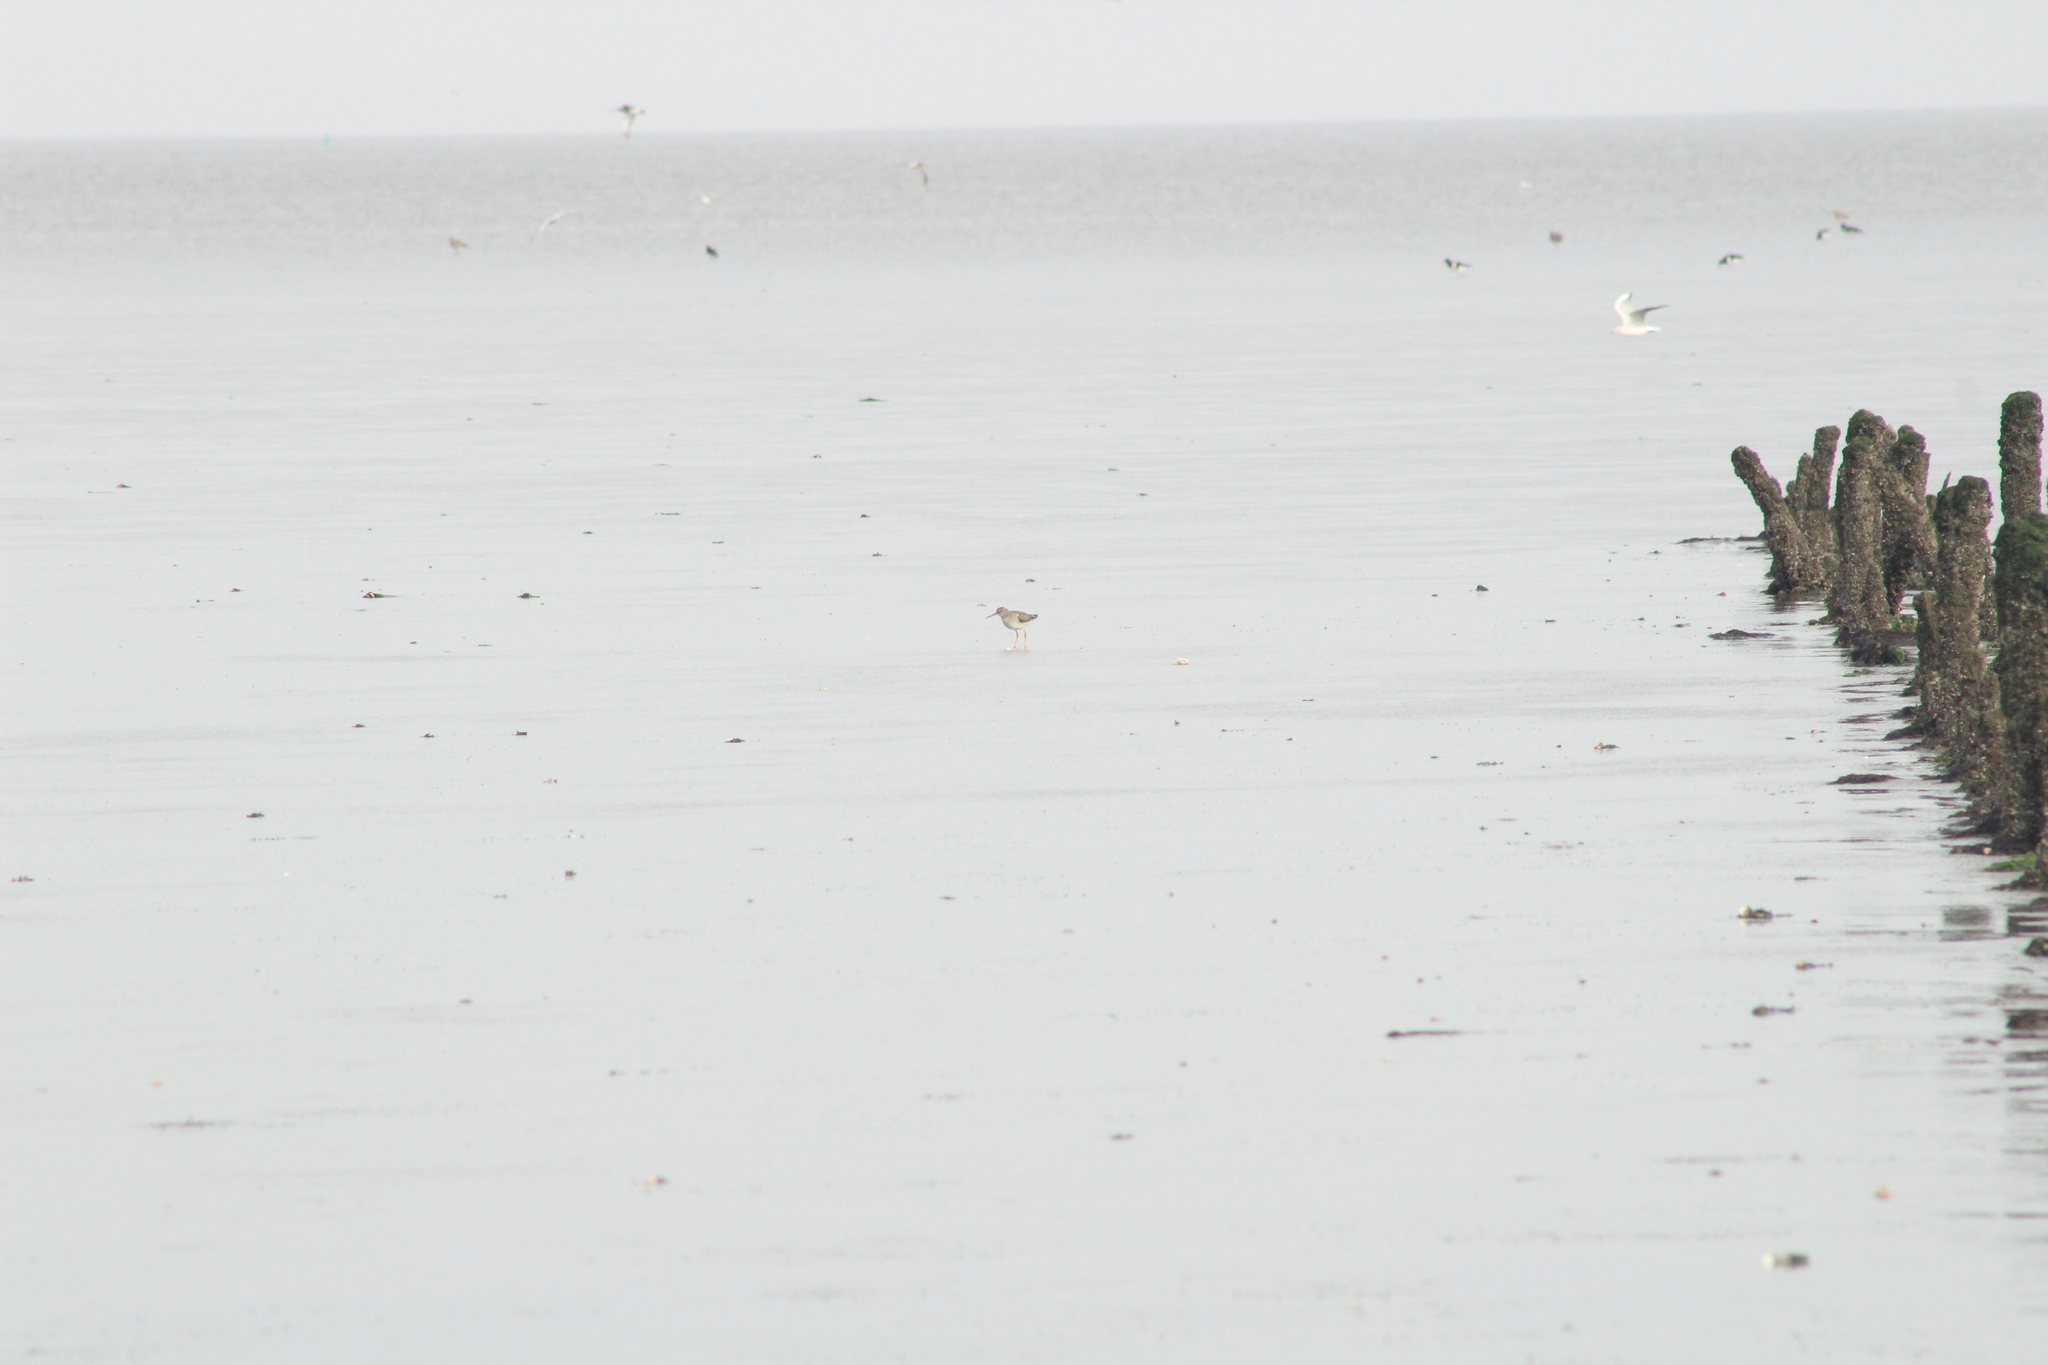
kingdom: Animalia
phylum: Chordata
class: Aves
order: Charadriiformes
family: Scolopacidae
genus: Tringa
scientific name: Tringa totanus
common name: Common redshank
